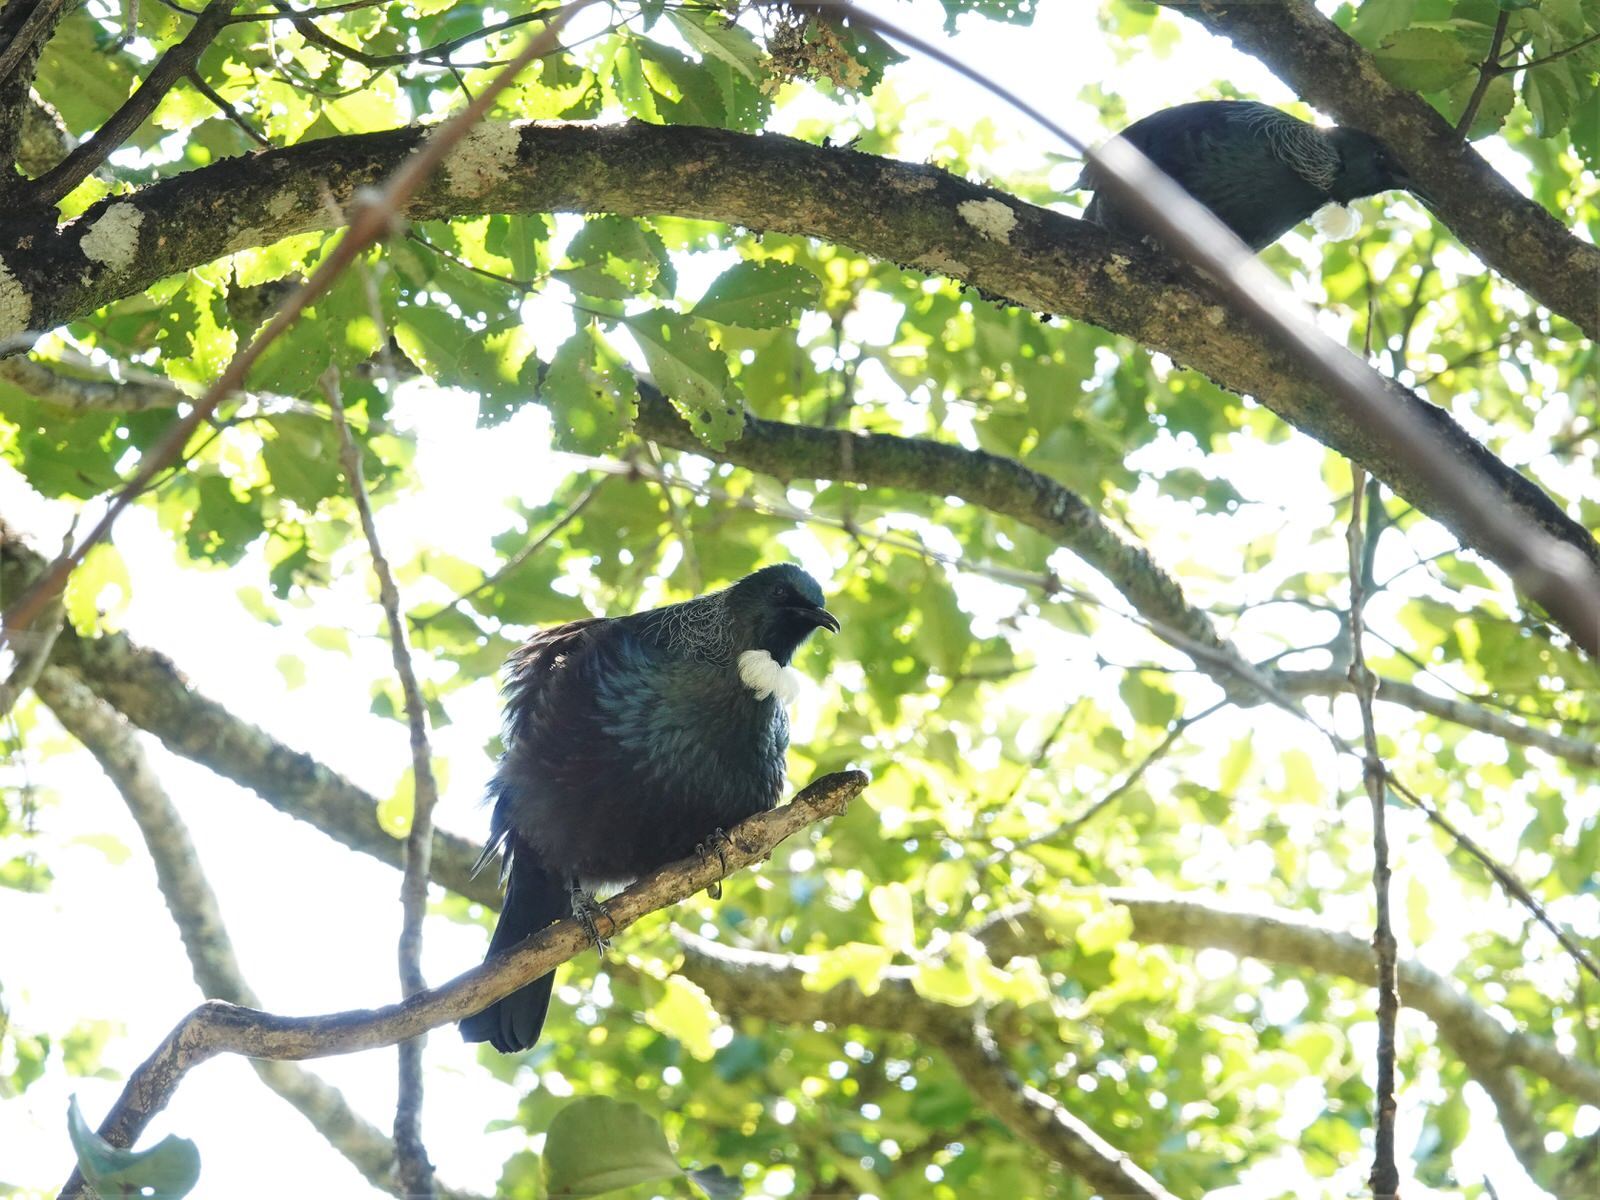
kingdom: Animalia
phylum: Chordata
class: Aves
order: Passeriformes
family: Meliphagidae
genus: Prosthemadera
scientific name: Prosthemadera novaeseelandiae
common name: Tui
